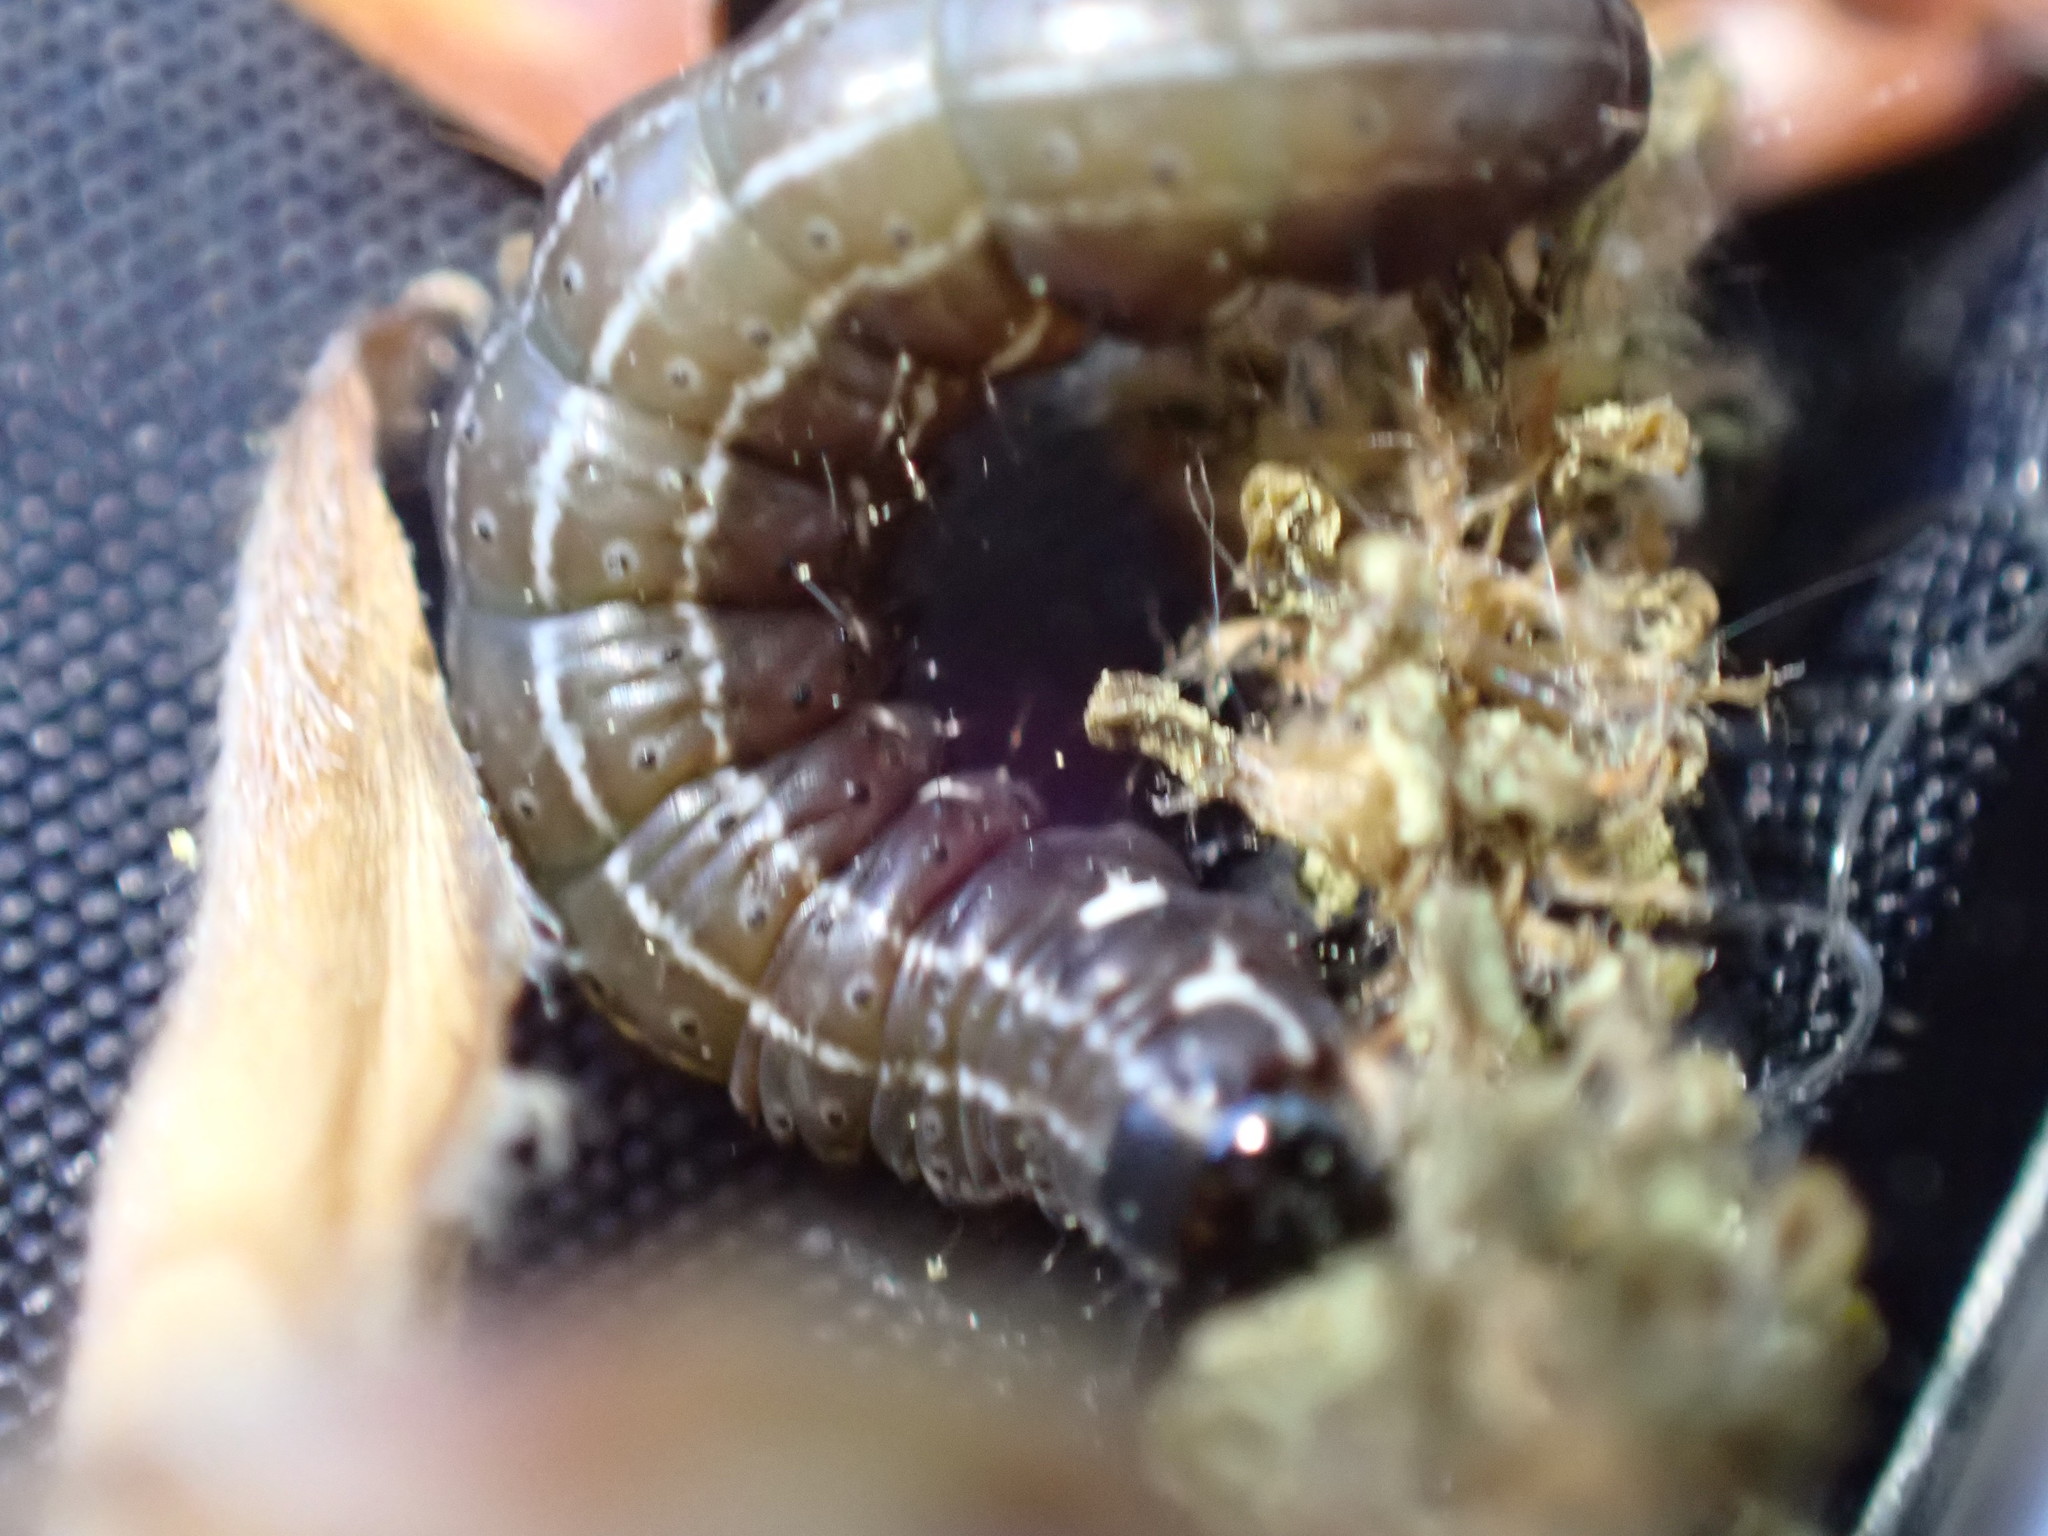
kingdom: Animalia
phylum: Arthropoda
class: Insecta
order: Lepidoptera
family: Noctuidae
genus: Eupsilia
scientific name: Eupsilia transversa
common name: Satellite
